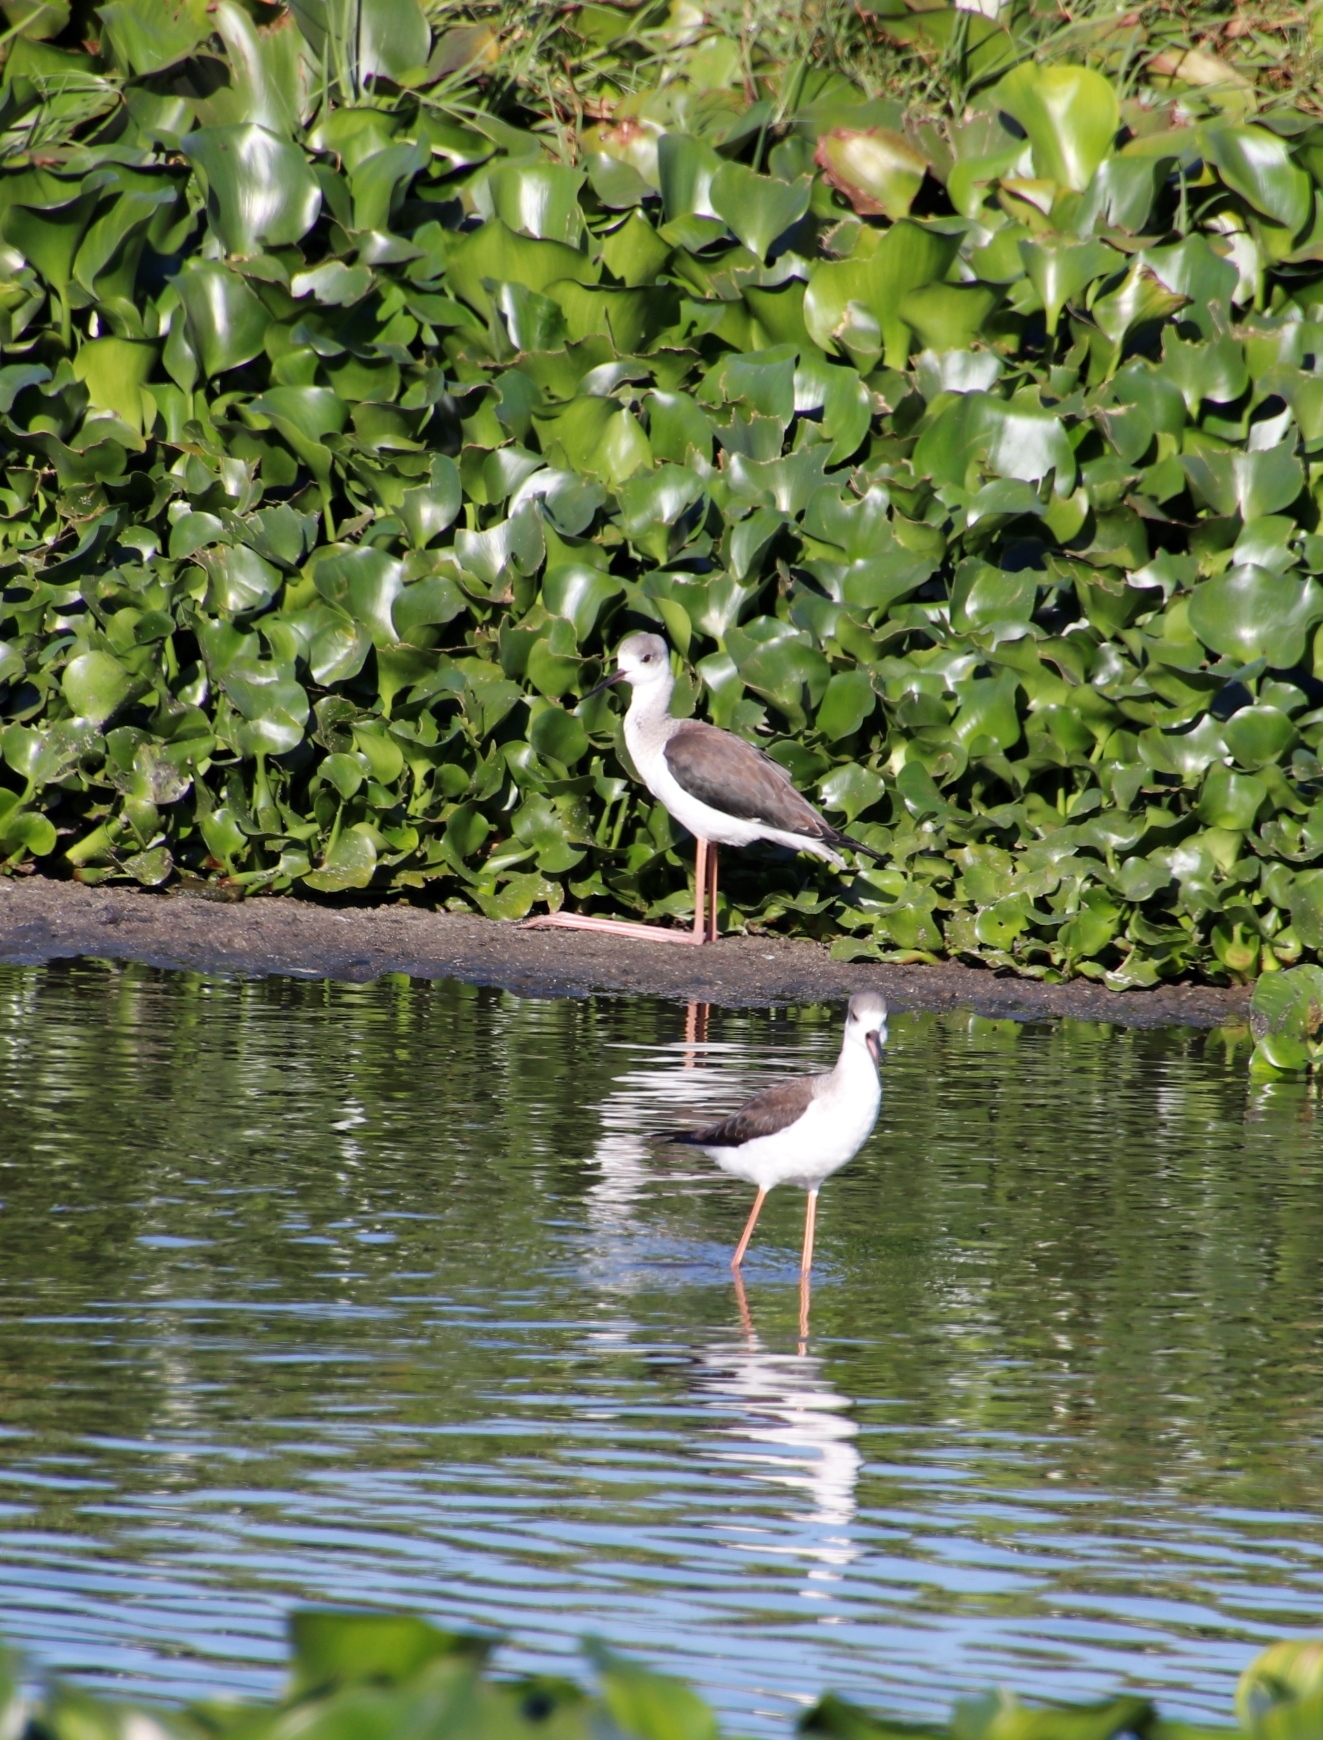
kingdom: Animalia
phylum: Chordata
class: Aves
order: Charadriiformes
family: Recurvirostridae
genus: Himantopus
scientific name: Himantopus himantopus
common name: Black-winged stilt
